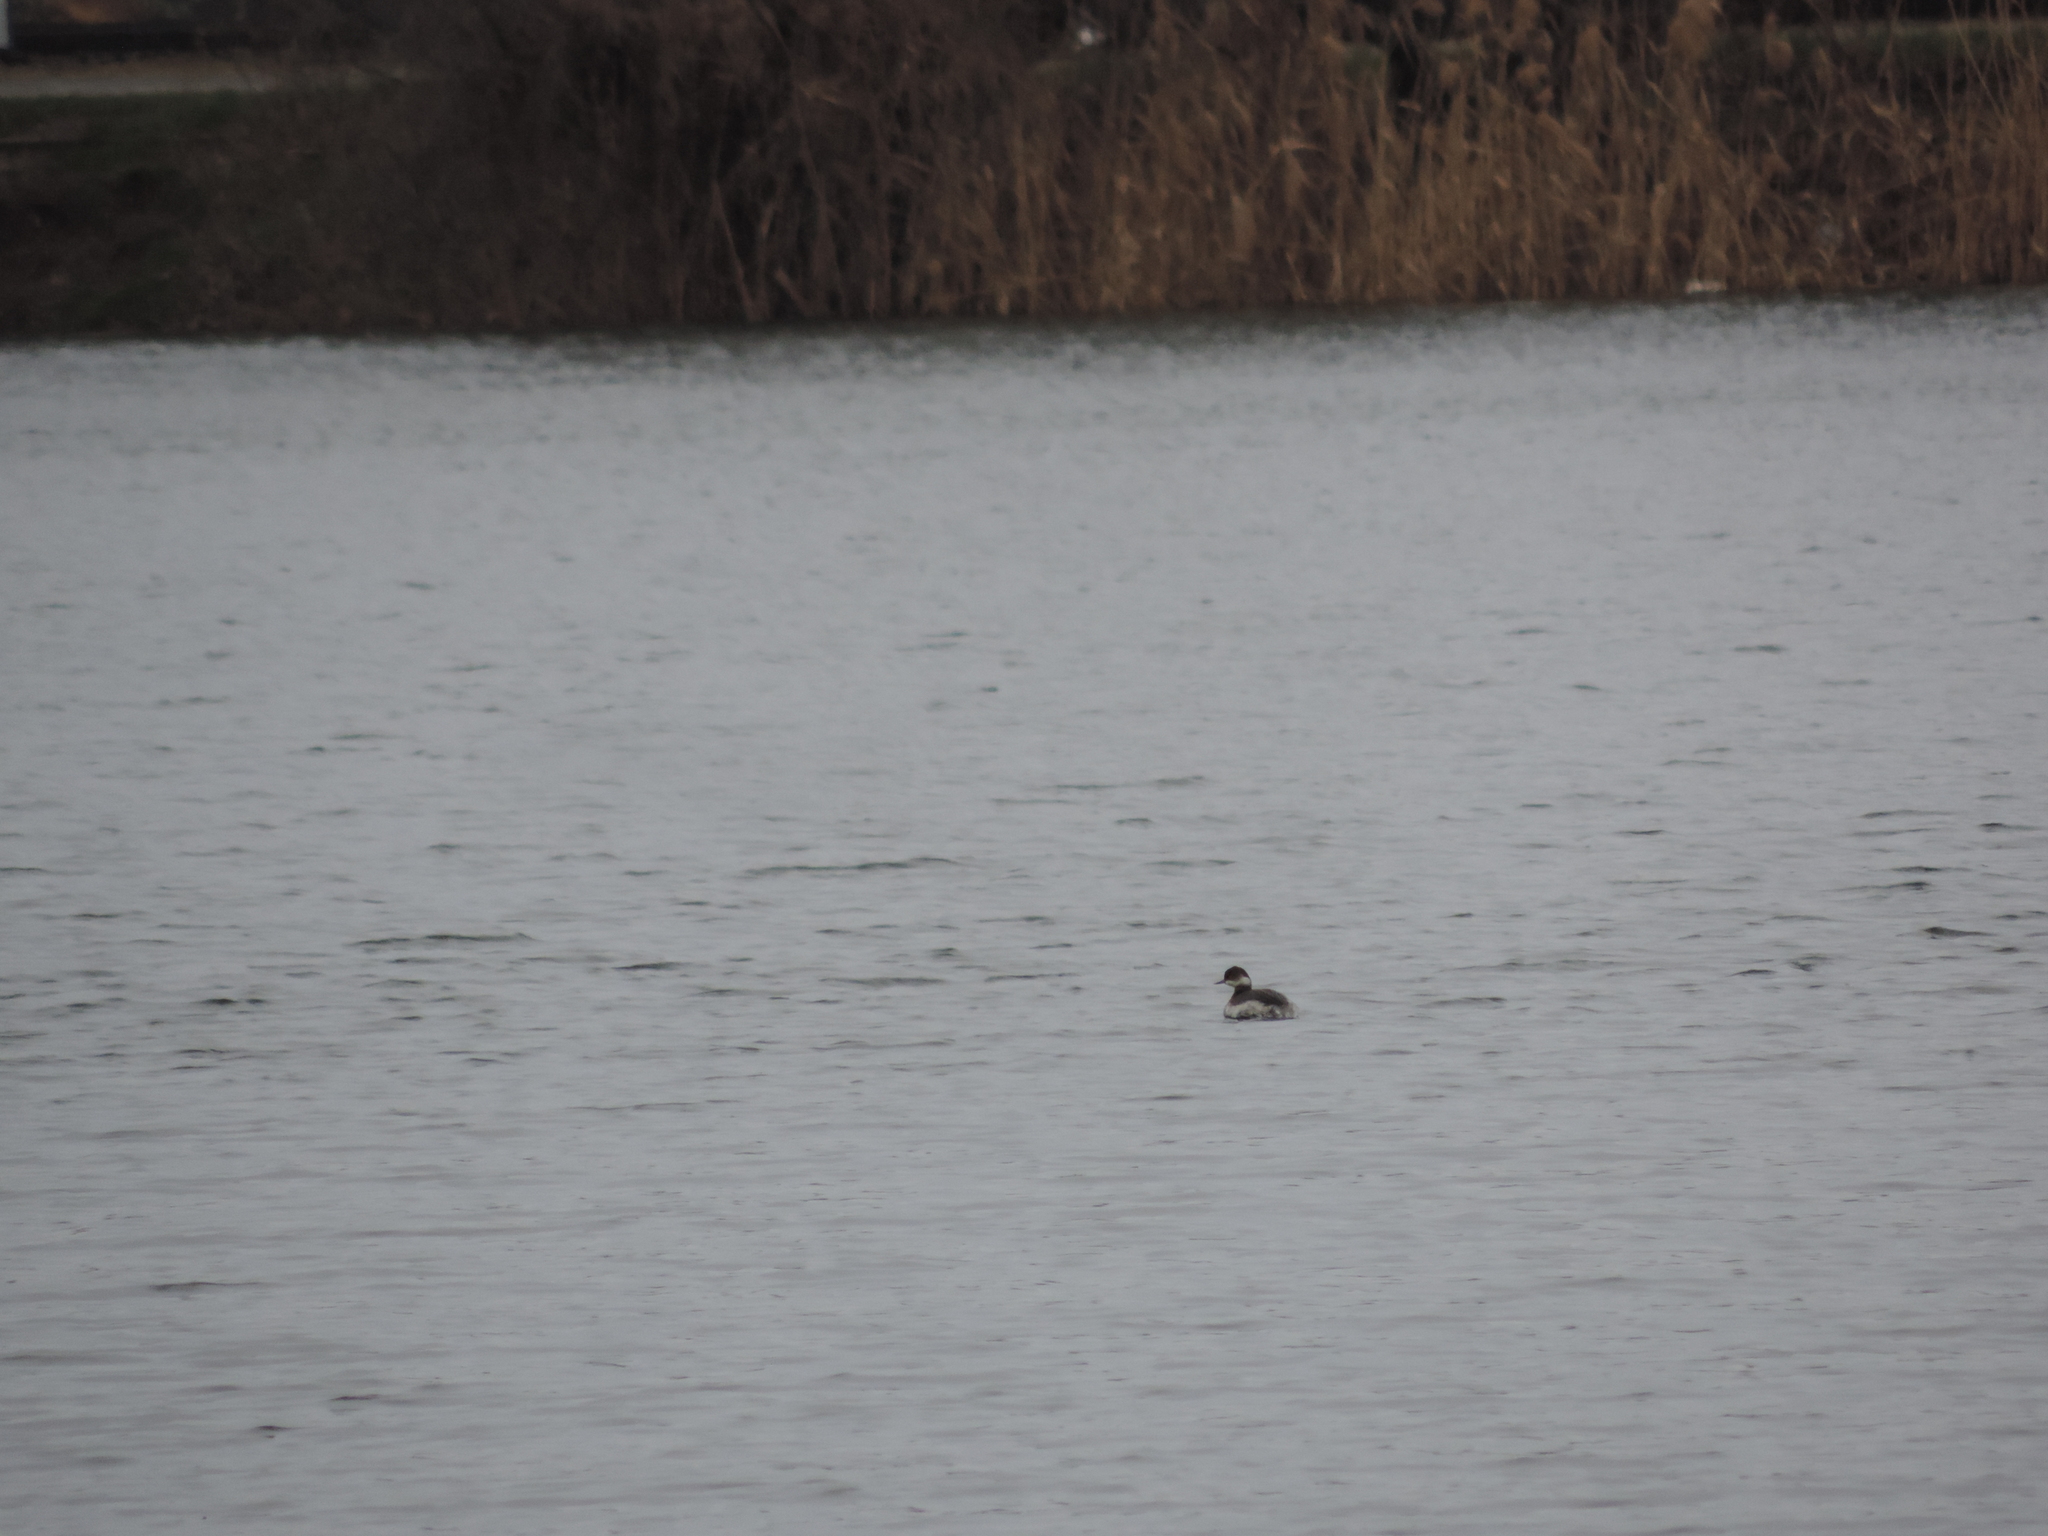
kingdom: Animalia
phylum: Chordata
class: Aves
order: Podicipediformes
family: Podicipedidae
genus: Podiceps
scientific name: Podiceps nigricollis
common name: Black-necked grebe
